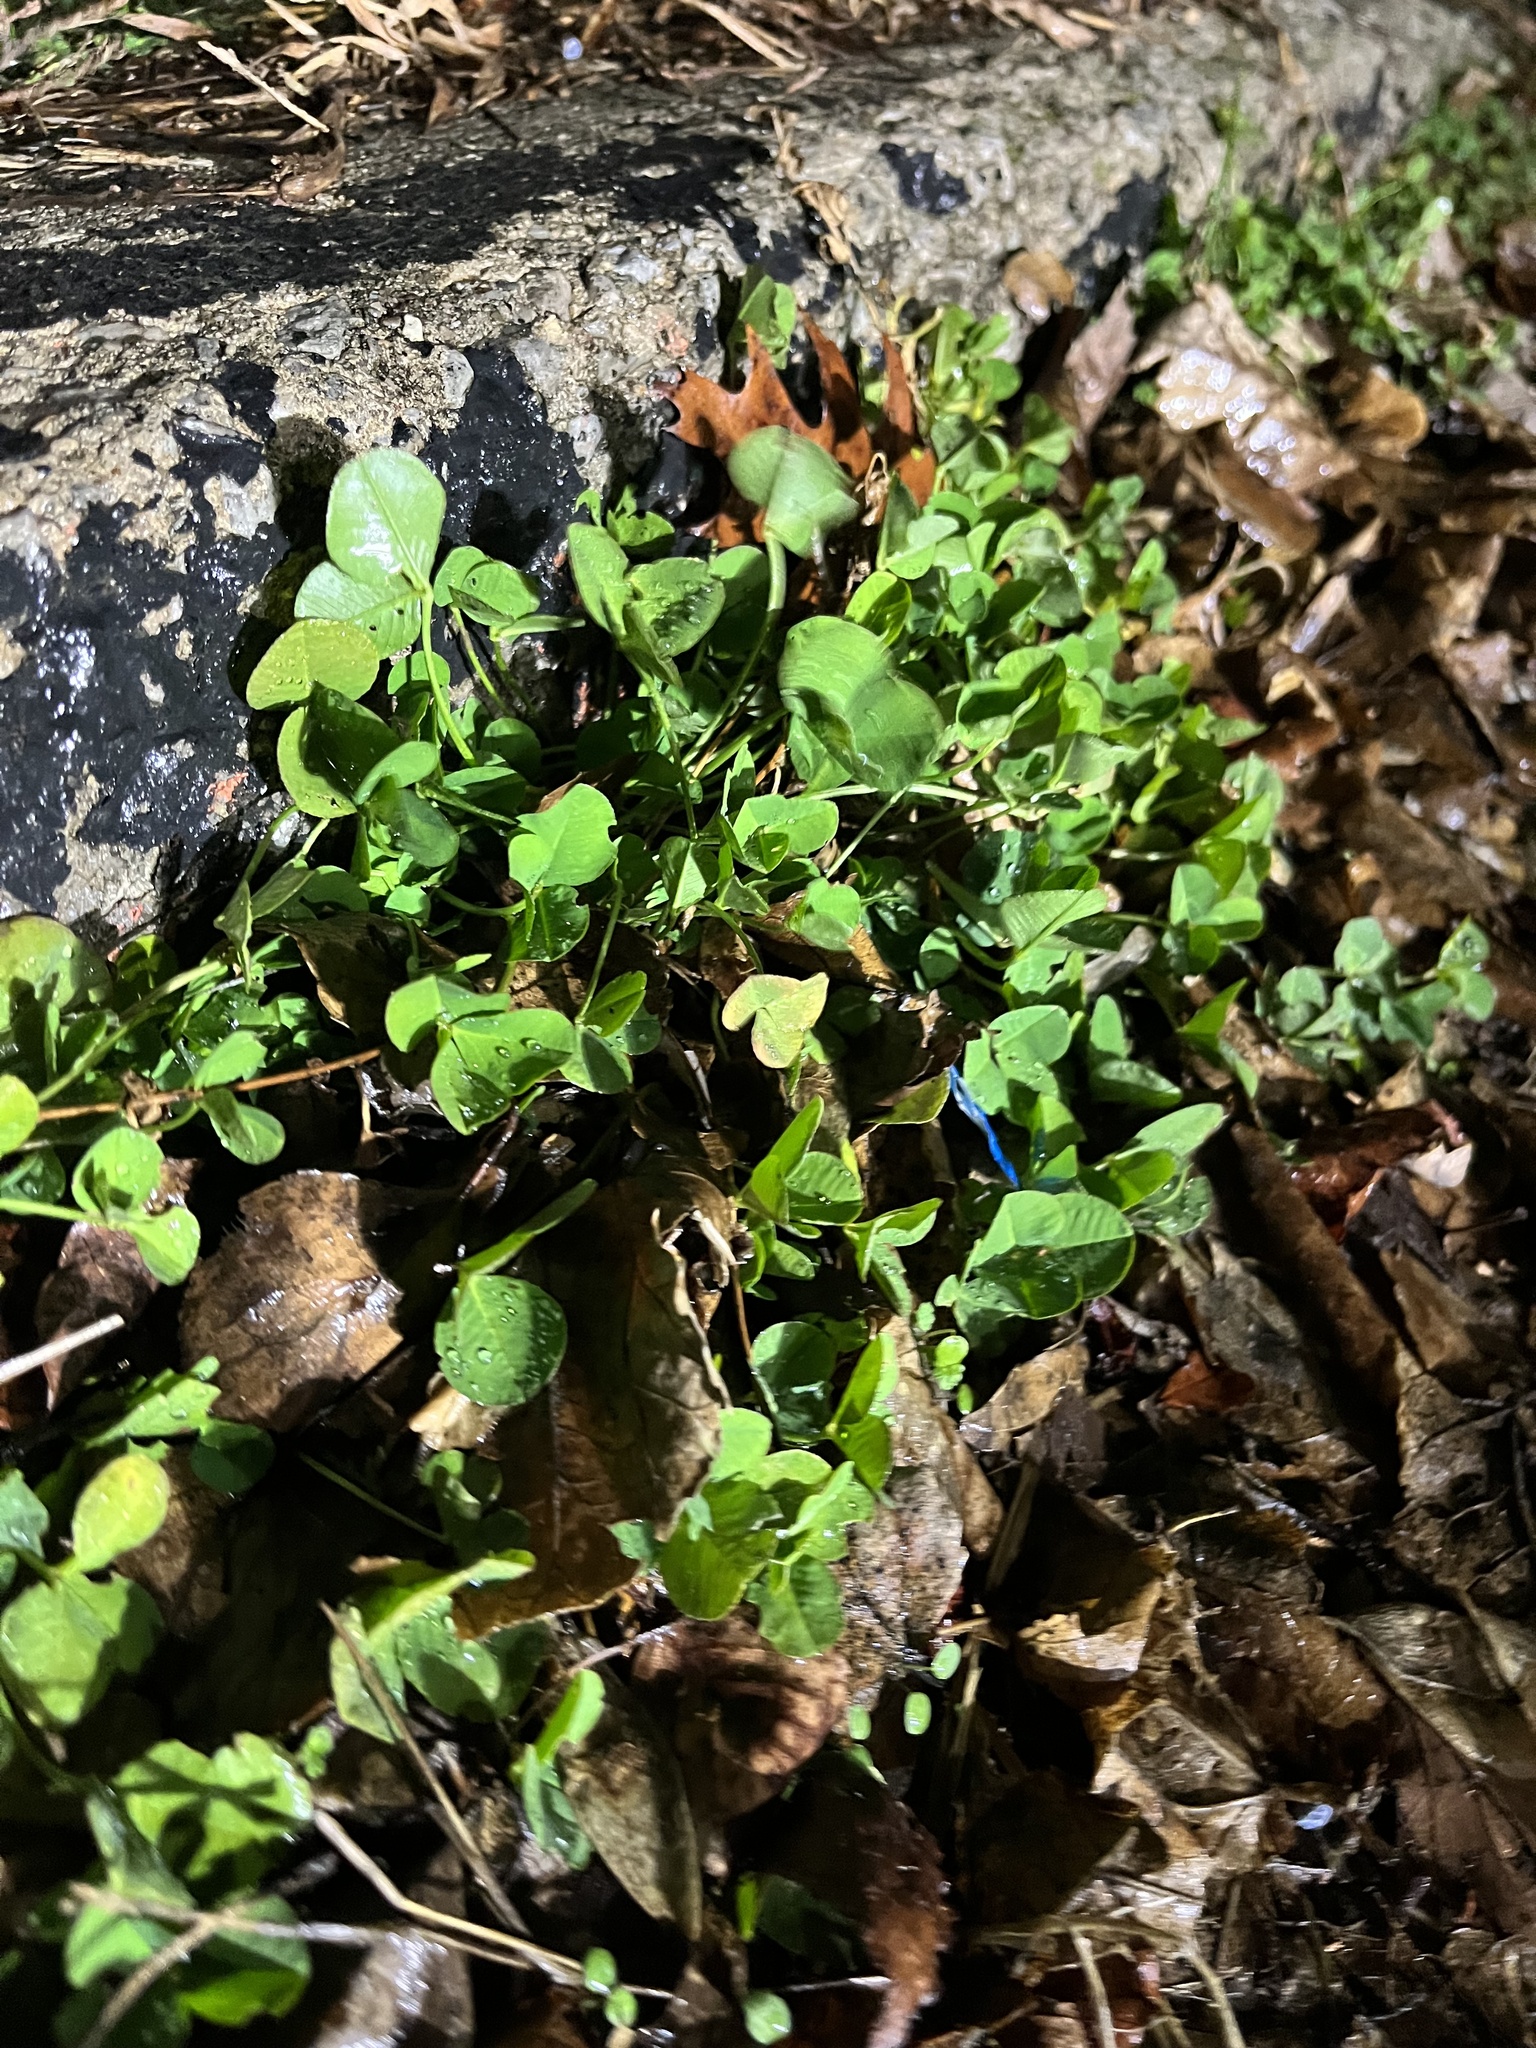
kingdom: Plantae
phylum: Tracheophyta
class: Magnoliopsida
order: Fabales
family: Fabaceae
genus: Trifolium
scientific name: Trifolium repens
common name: White clover
